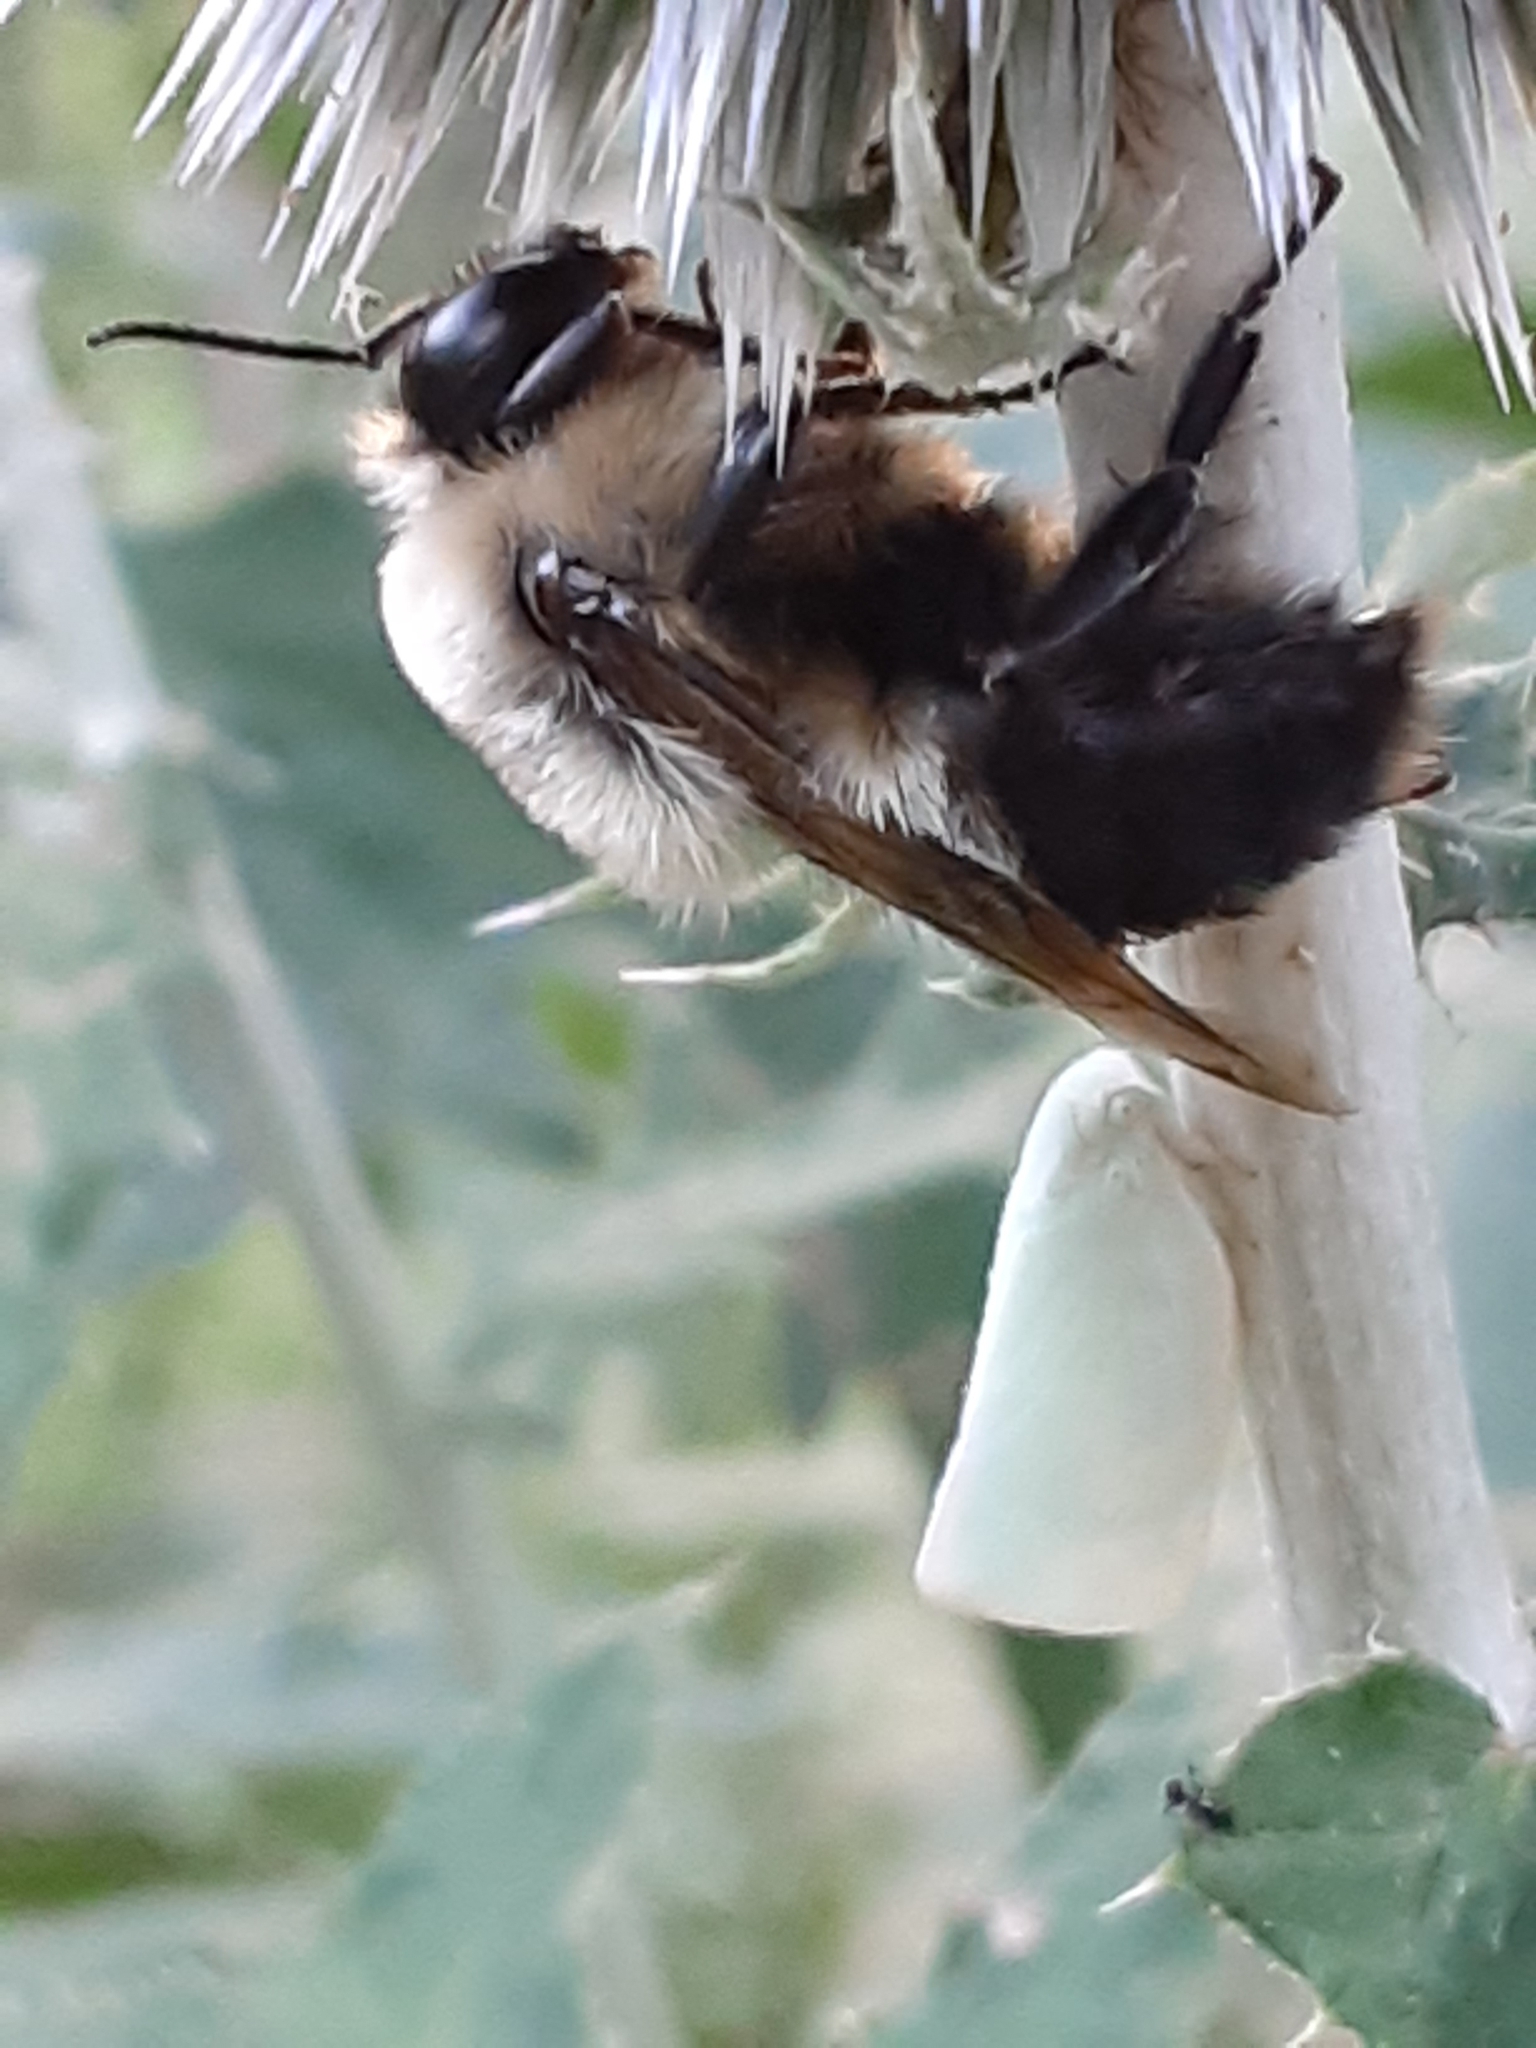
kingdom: Animalia
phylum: Arthropoda
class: Insecta
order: Hymenoptera
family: Apidae
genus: Bombus
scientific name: Bombus griseocollis
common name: Brown-belted bumble bee
